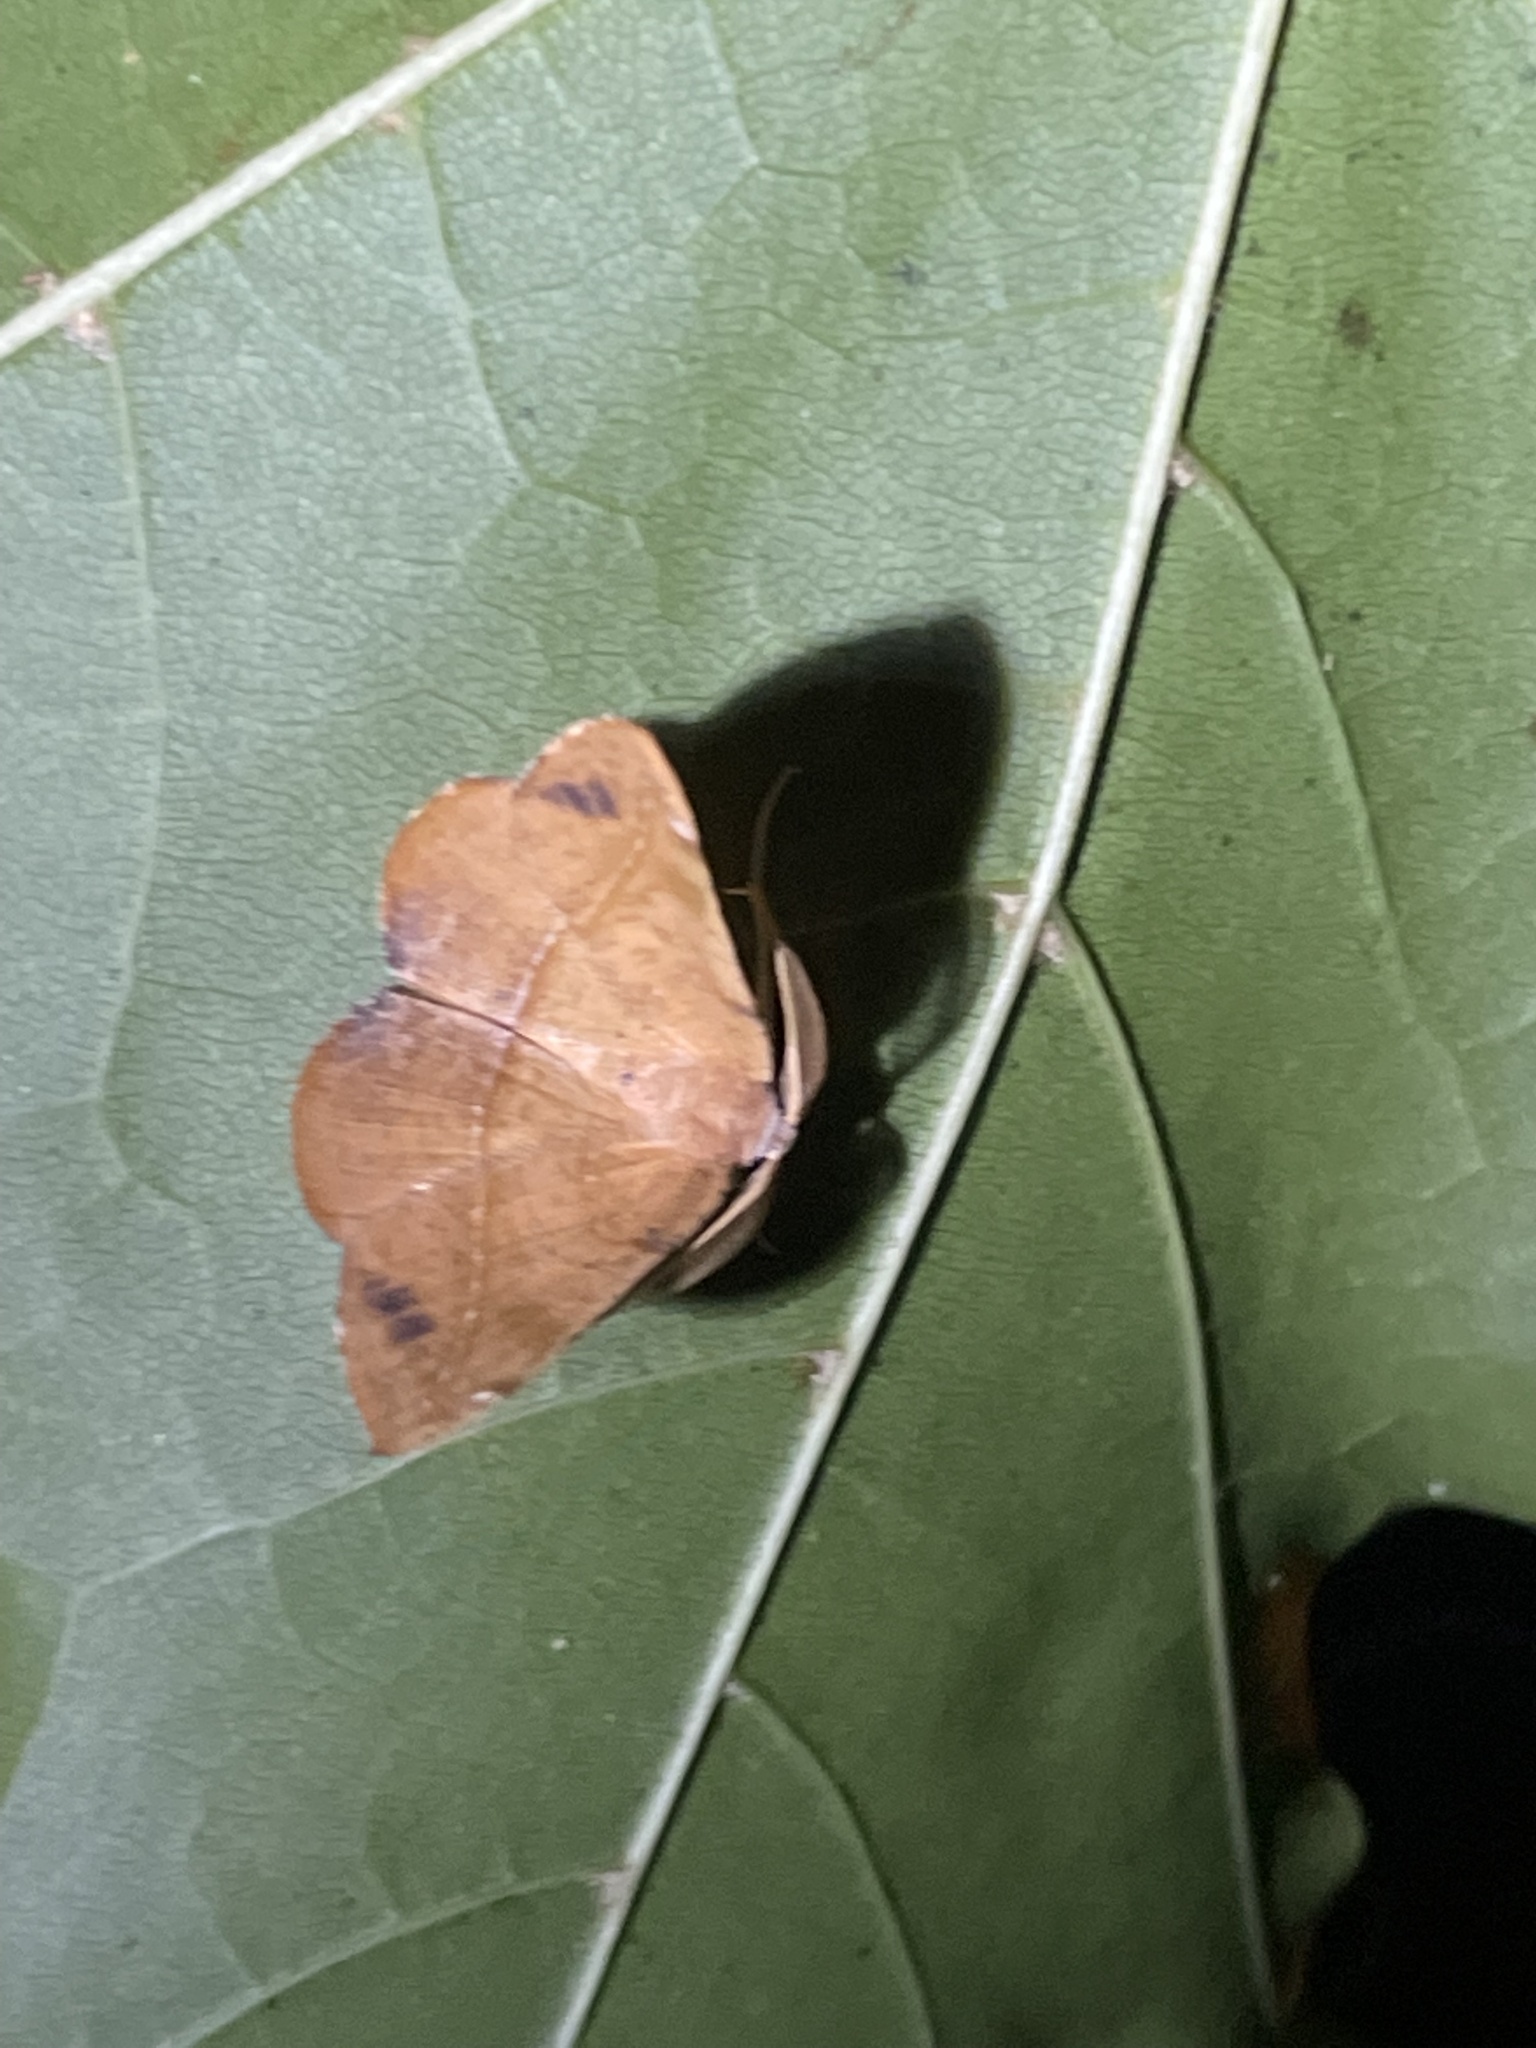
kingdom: Animalia
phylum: Arthropoda
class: Insecta
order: Lepidoptera
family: Geometridae
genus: Patalene
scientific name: Patalene olyzonaria
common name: Juniper geometer moth
